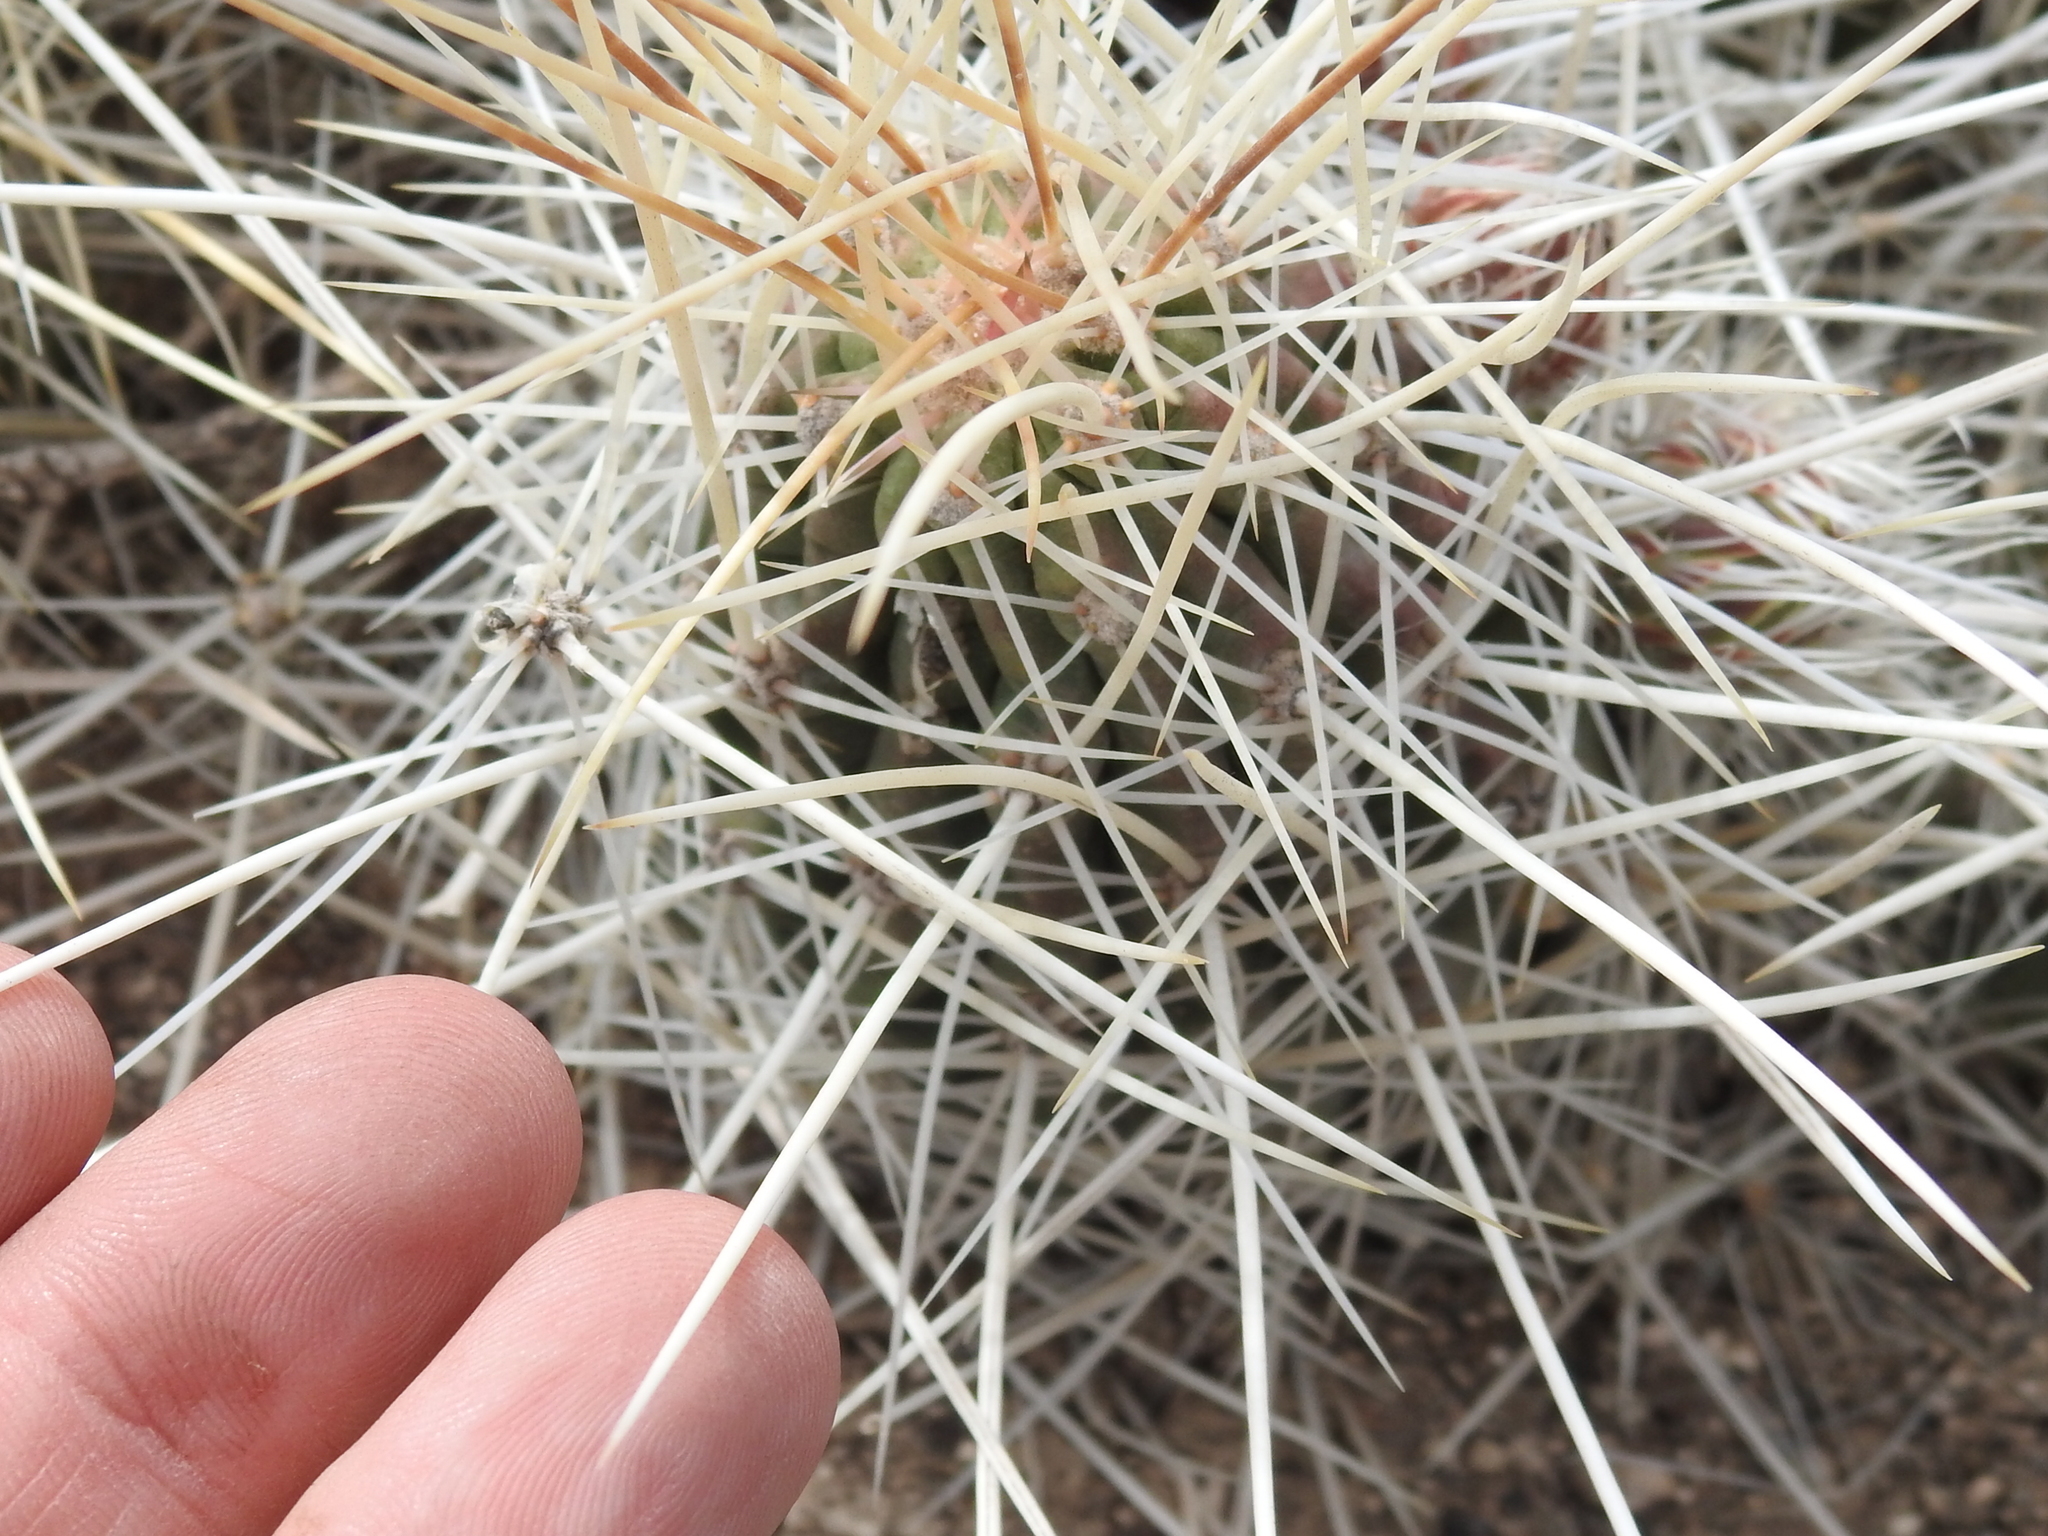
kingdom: Plantae
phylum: Tracheophyta
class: Magnoliopsida
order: Caryophyllales
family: Cactaceae
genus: Echinocereus
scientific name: Echinocereus stramineus
